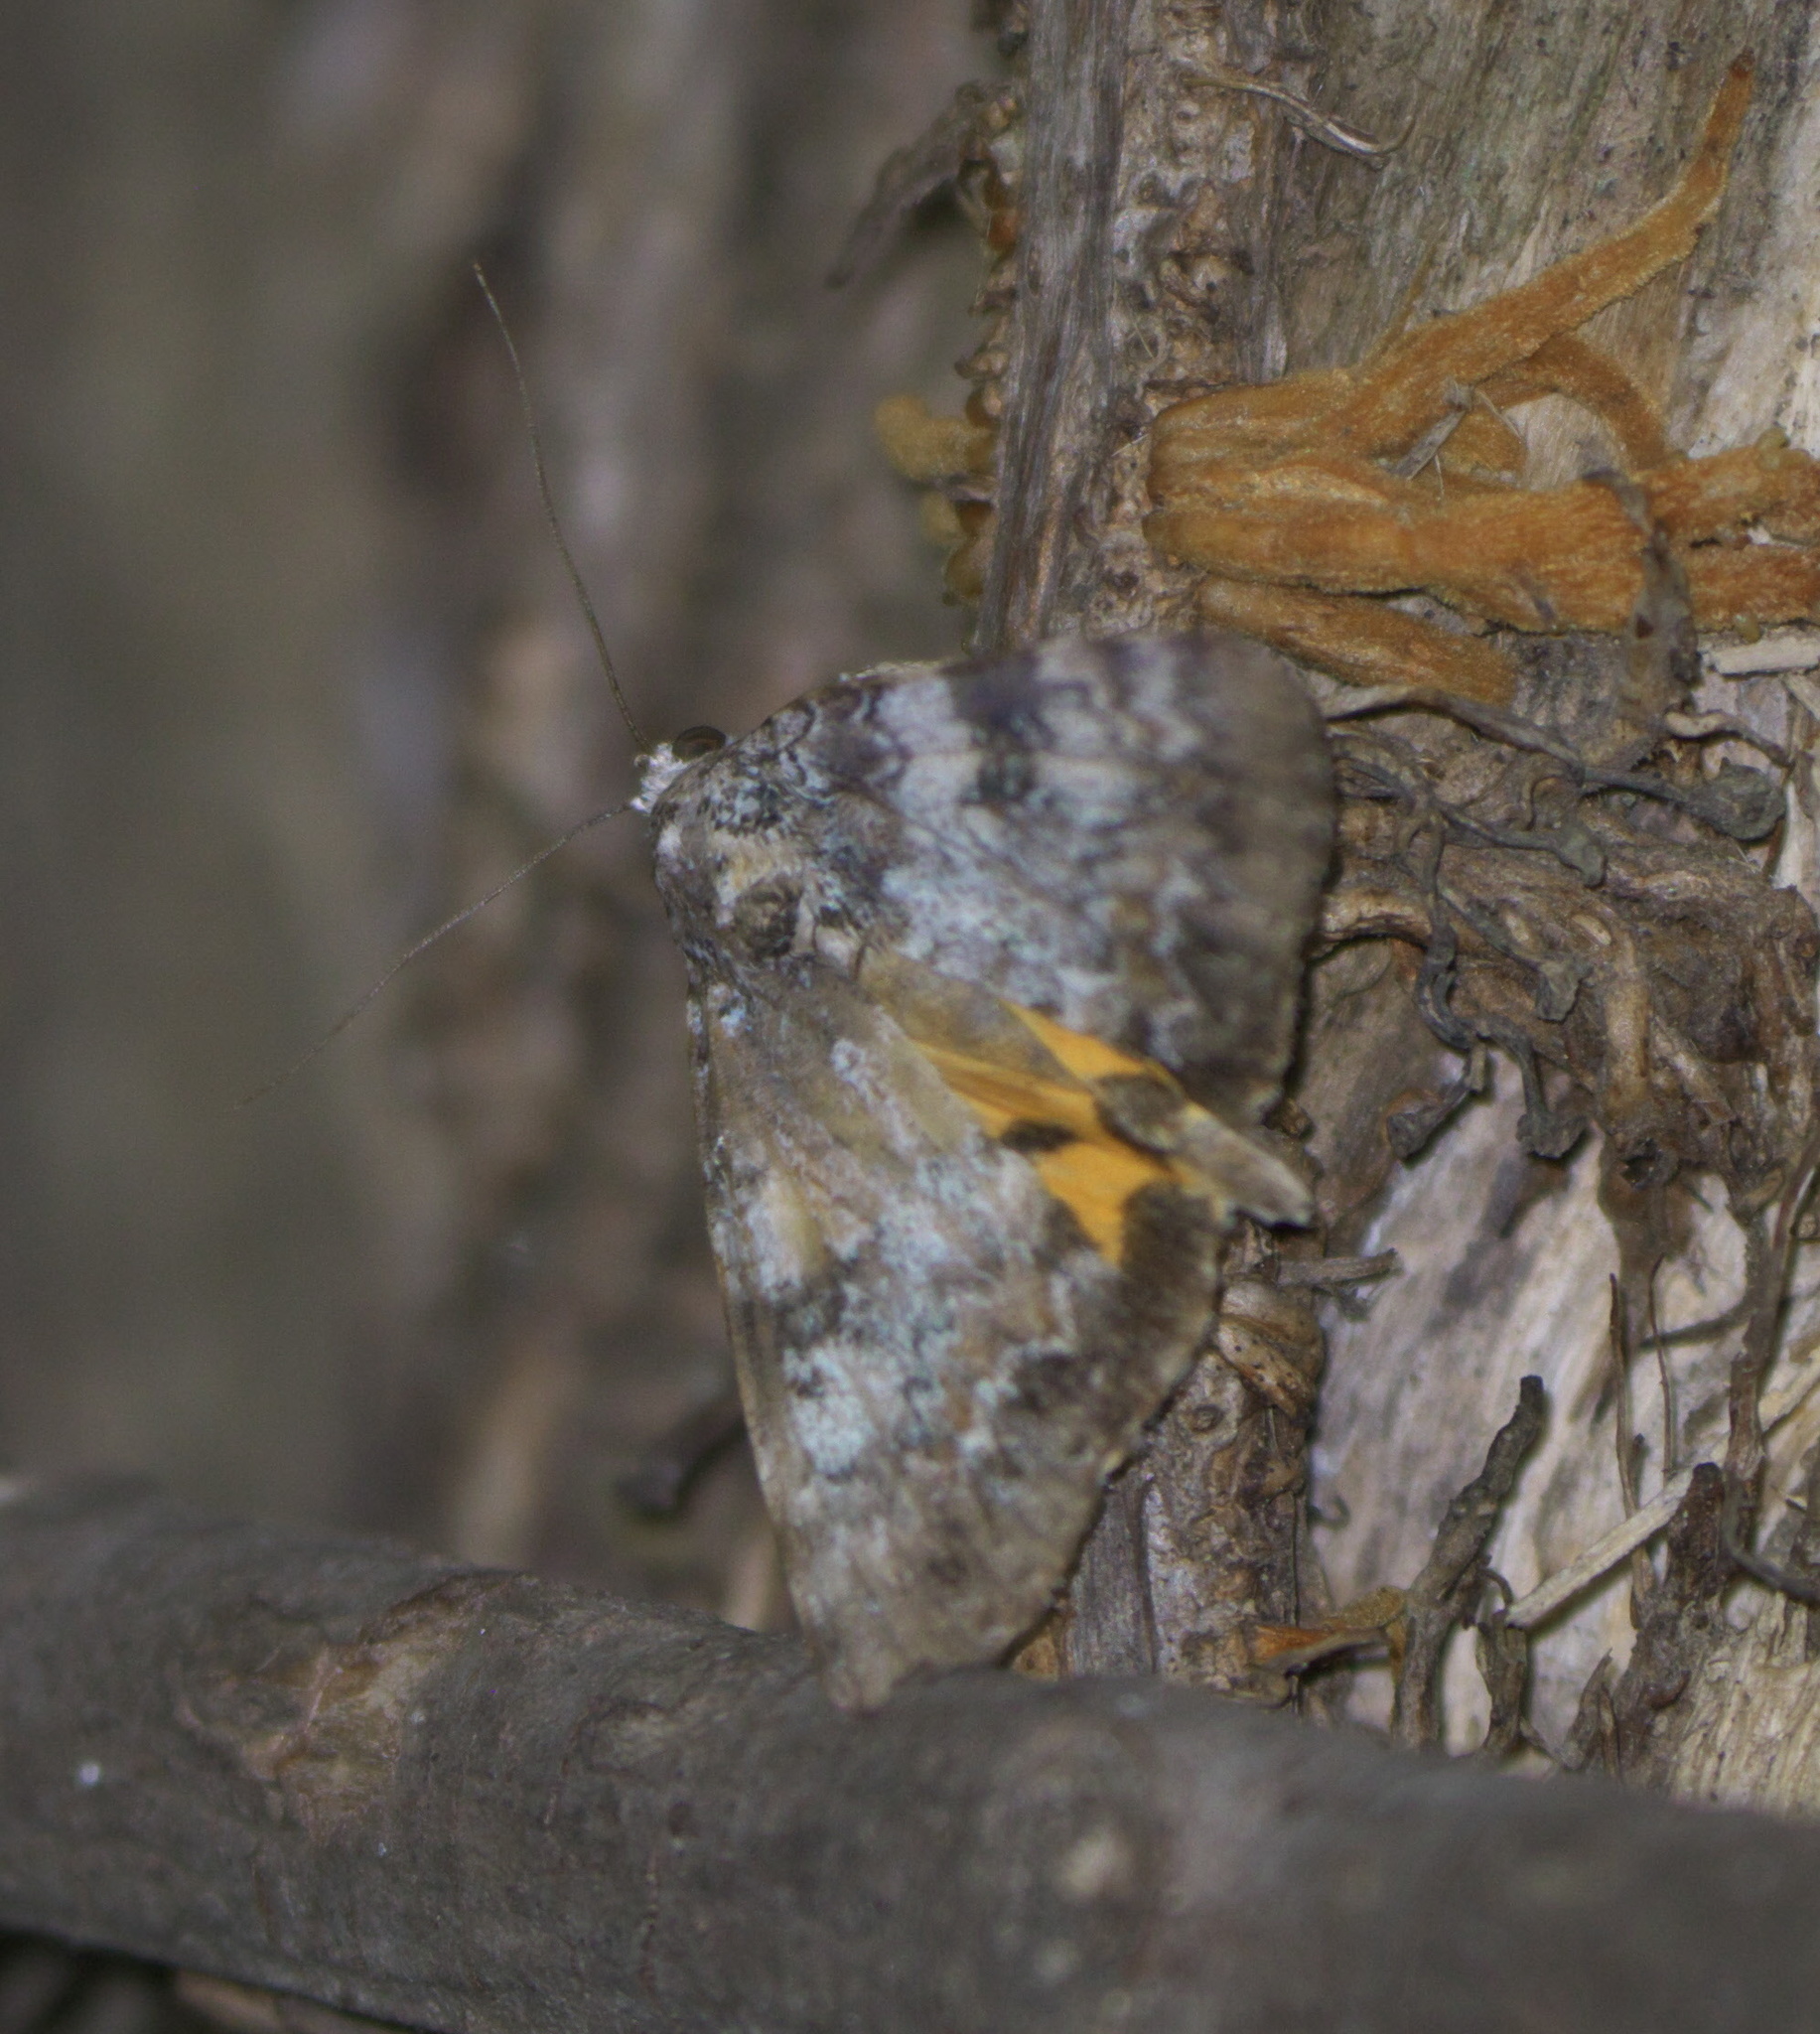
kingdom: Animalia
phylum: Arthropoda
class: Insecta
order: Lepidoptera
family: Erebidae
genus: Catocala
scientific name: Catocala connubialis
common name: Connubial underwing
